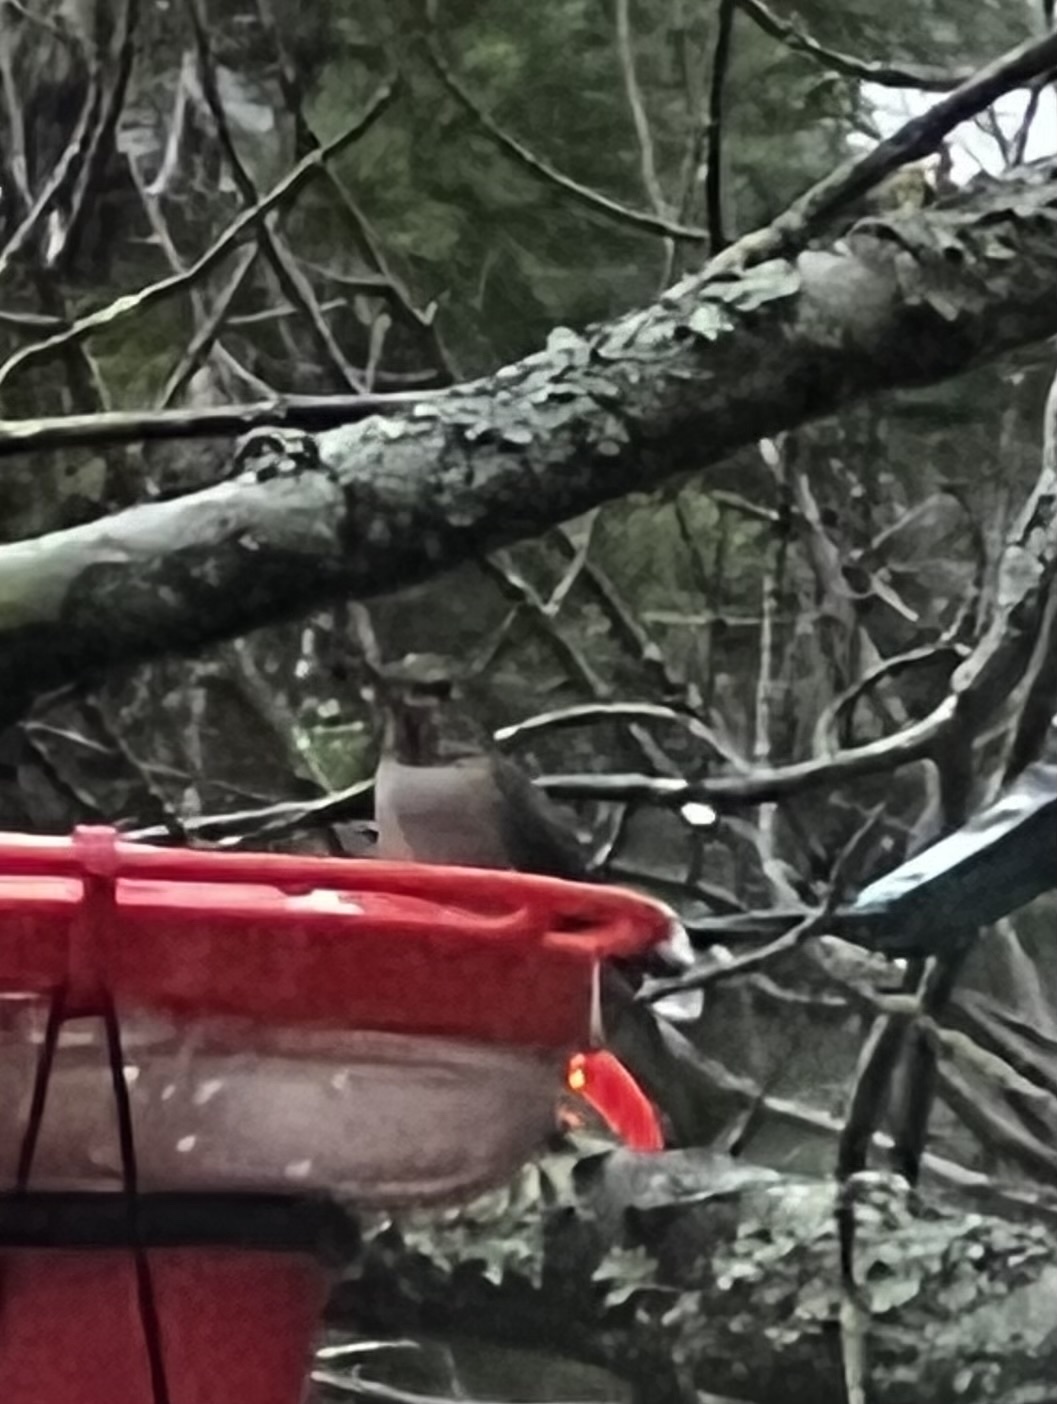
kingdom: Animalia
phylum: Chordata
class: Aves
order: Apodiformes
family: Trochilidae
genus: Calypte
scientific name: Calypte anna
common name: Anna's hummingbird
